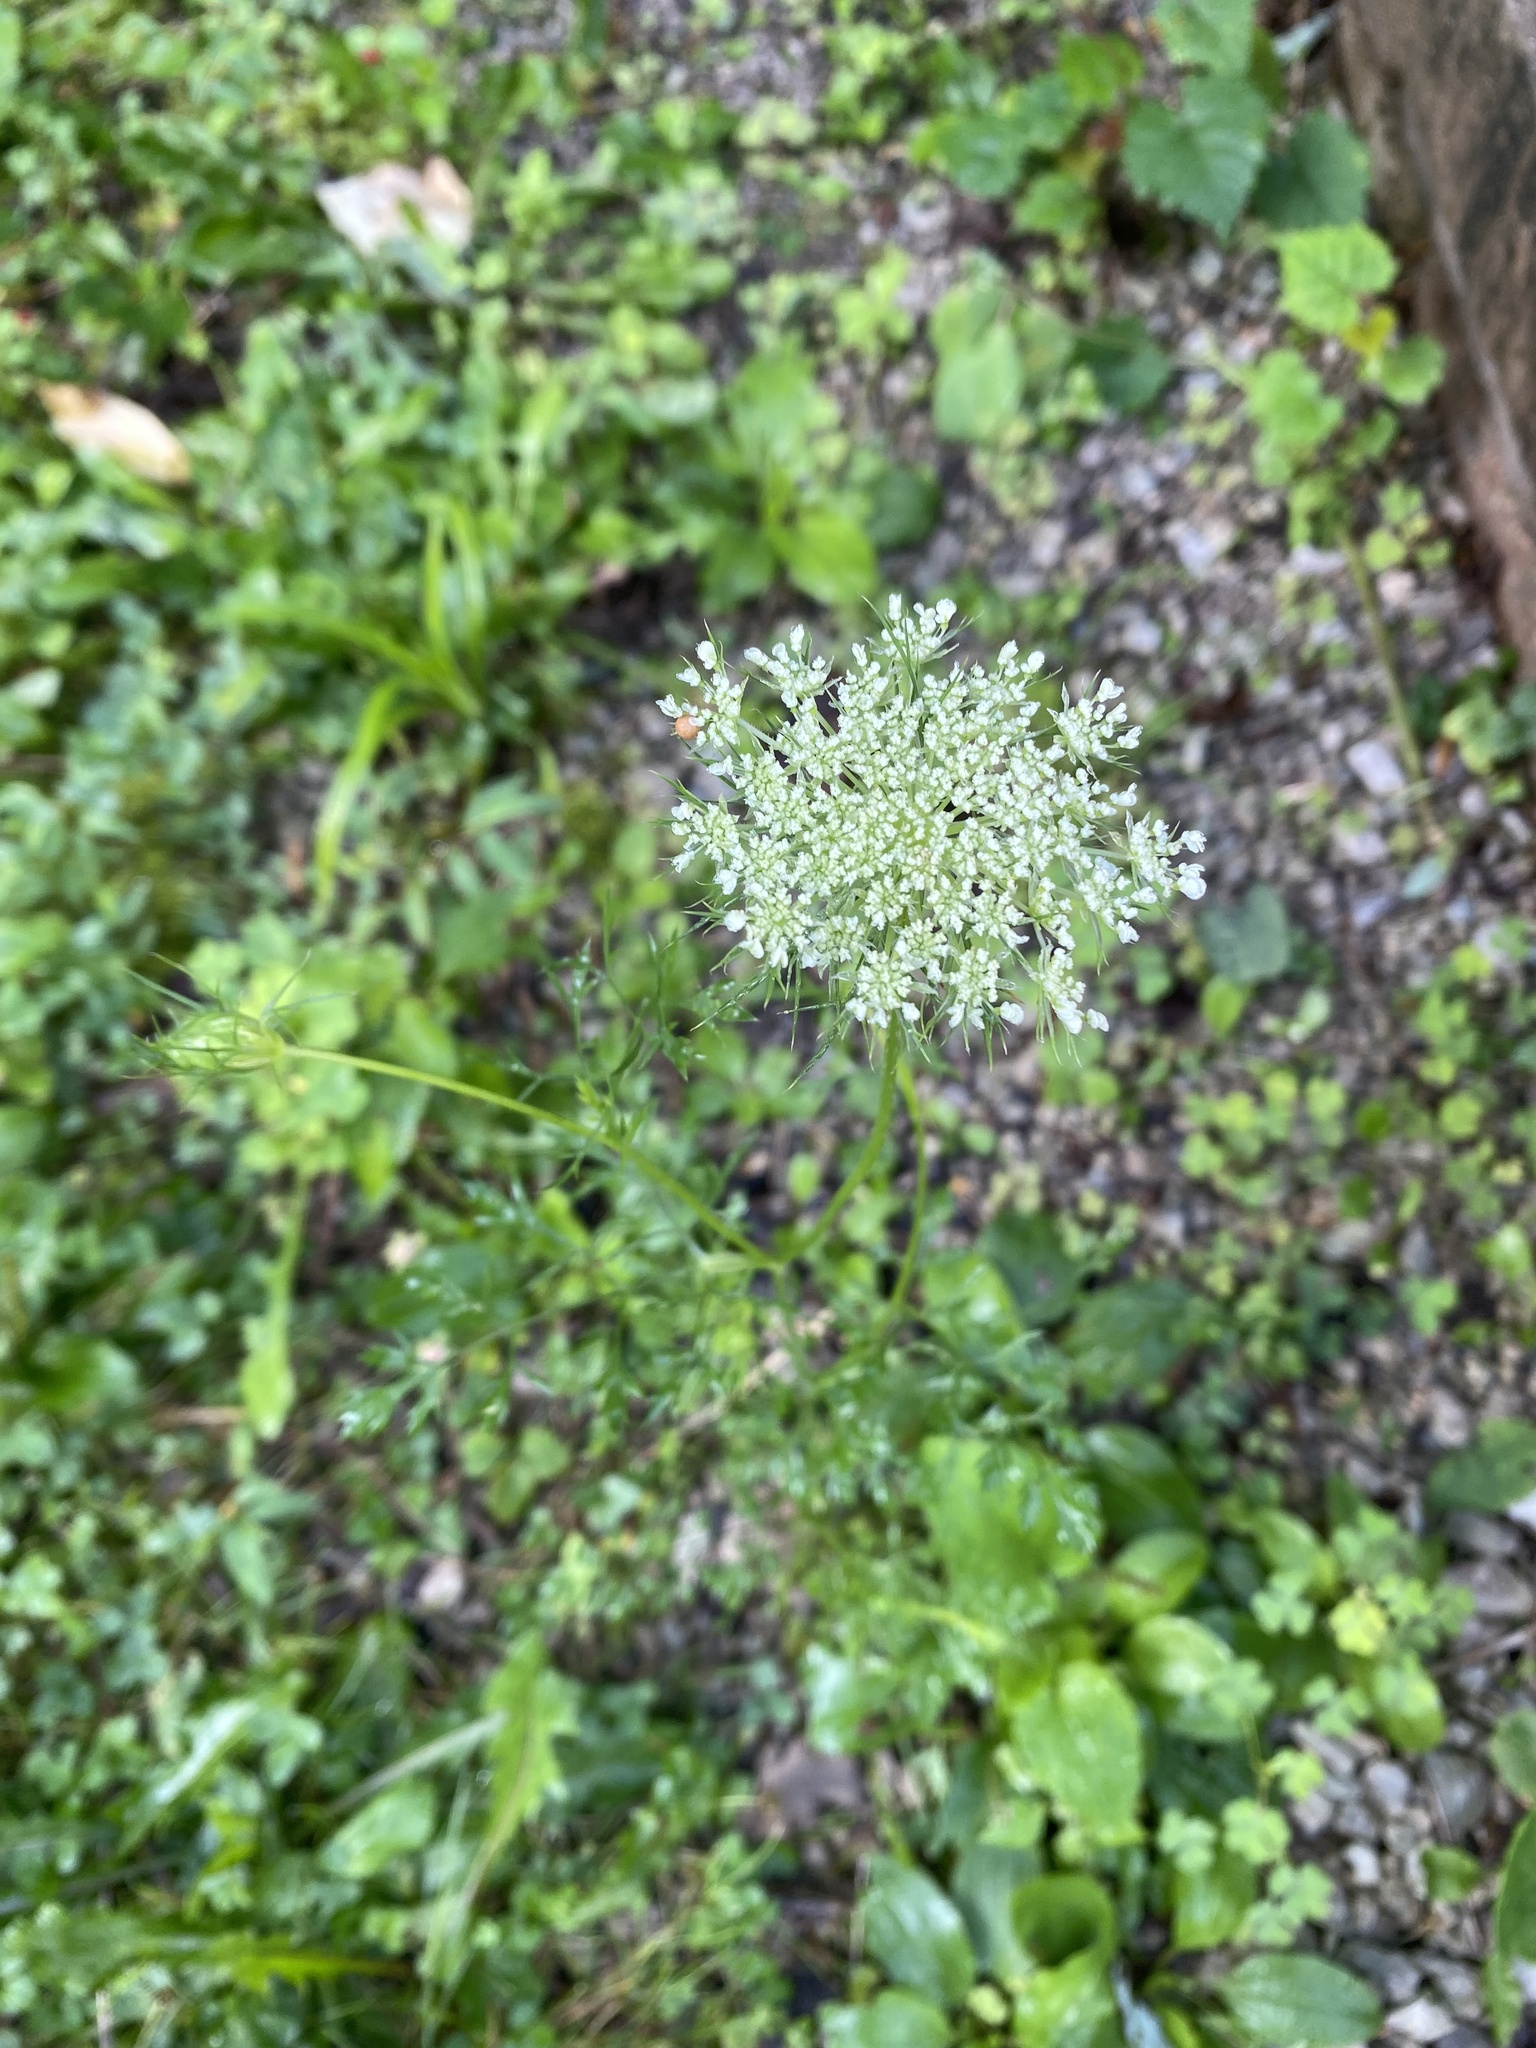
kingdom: Plantae
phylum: Tracheophyta
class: Magnoliopsida
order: Apiales
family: Apiaceae
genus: Daucus
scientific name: Daucus carota
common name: Wild carrot
